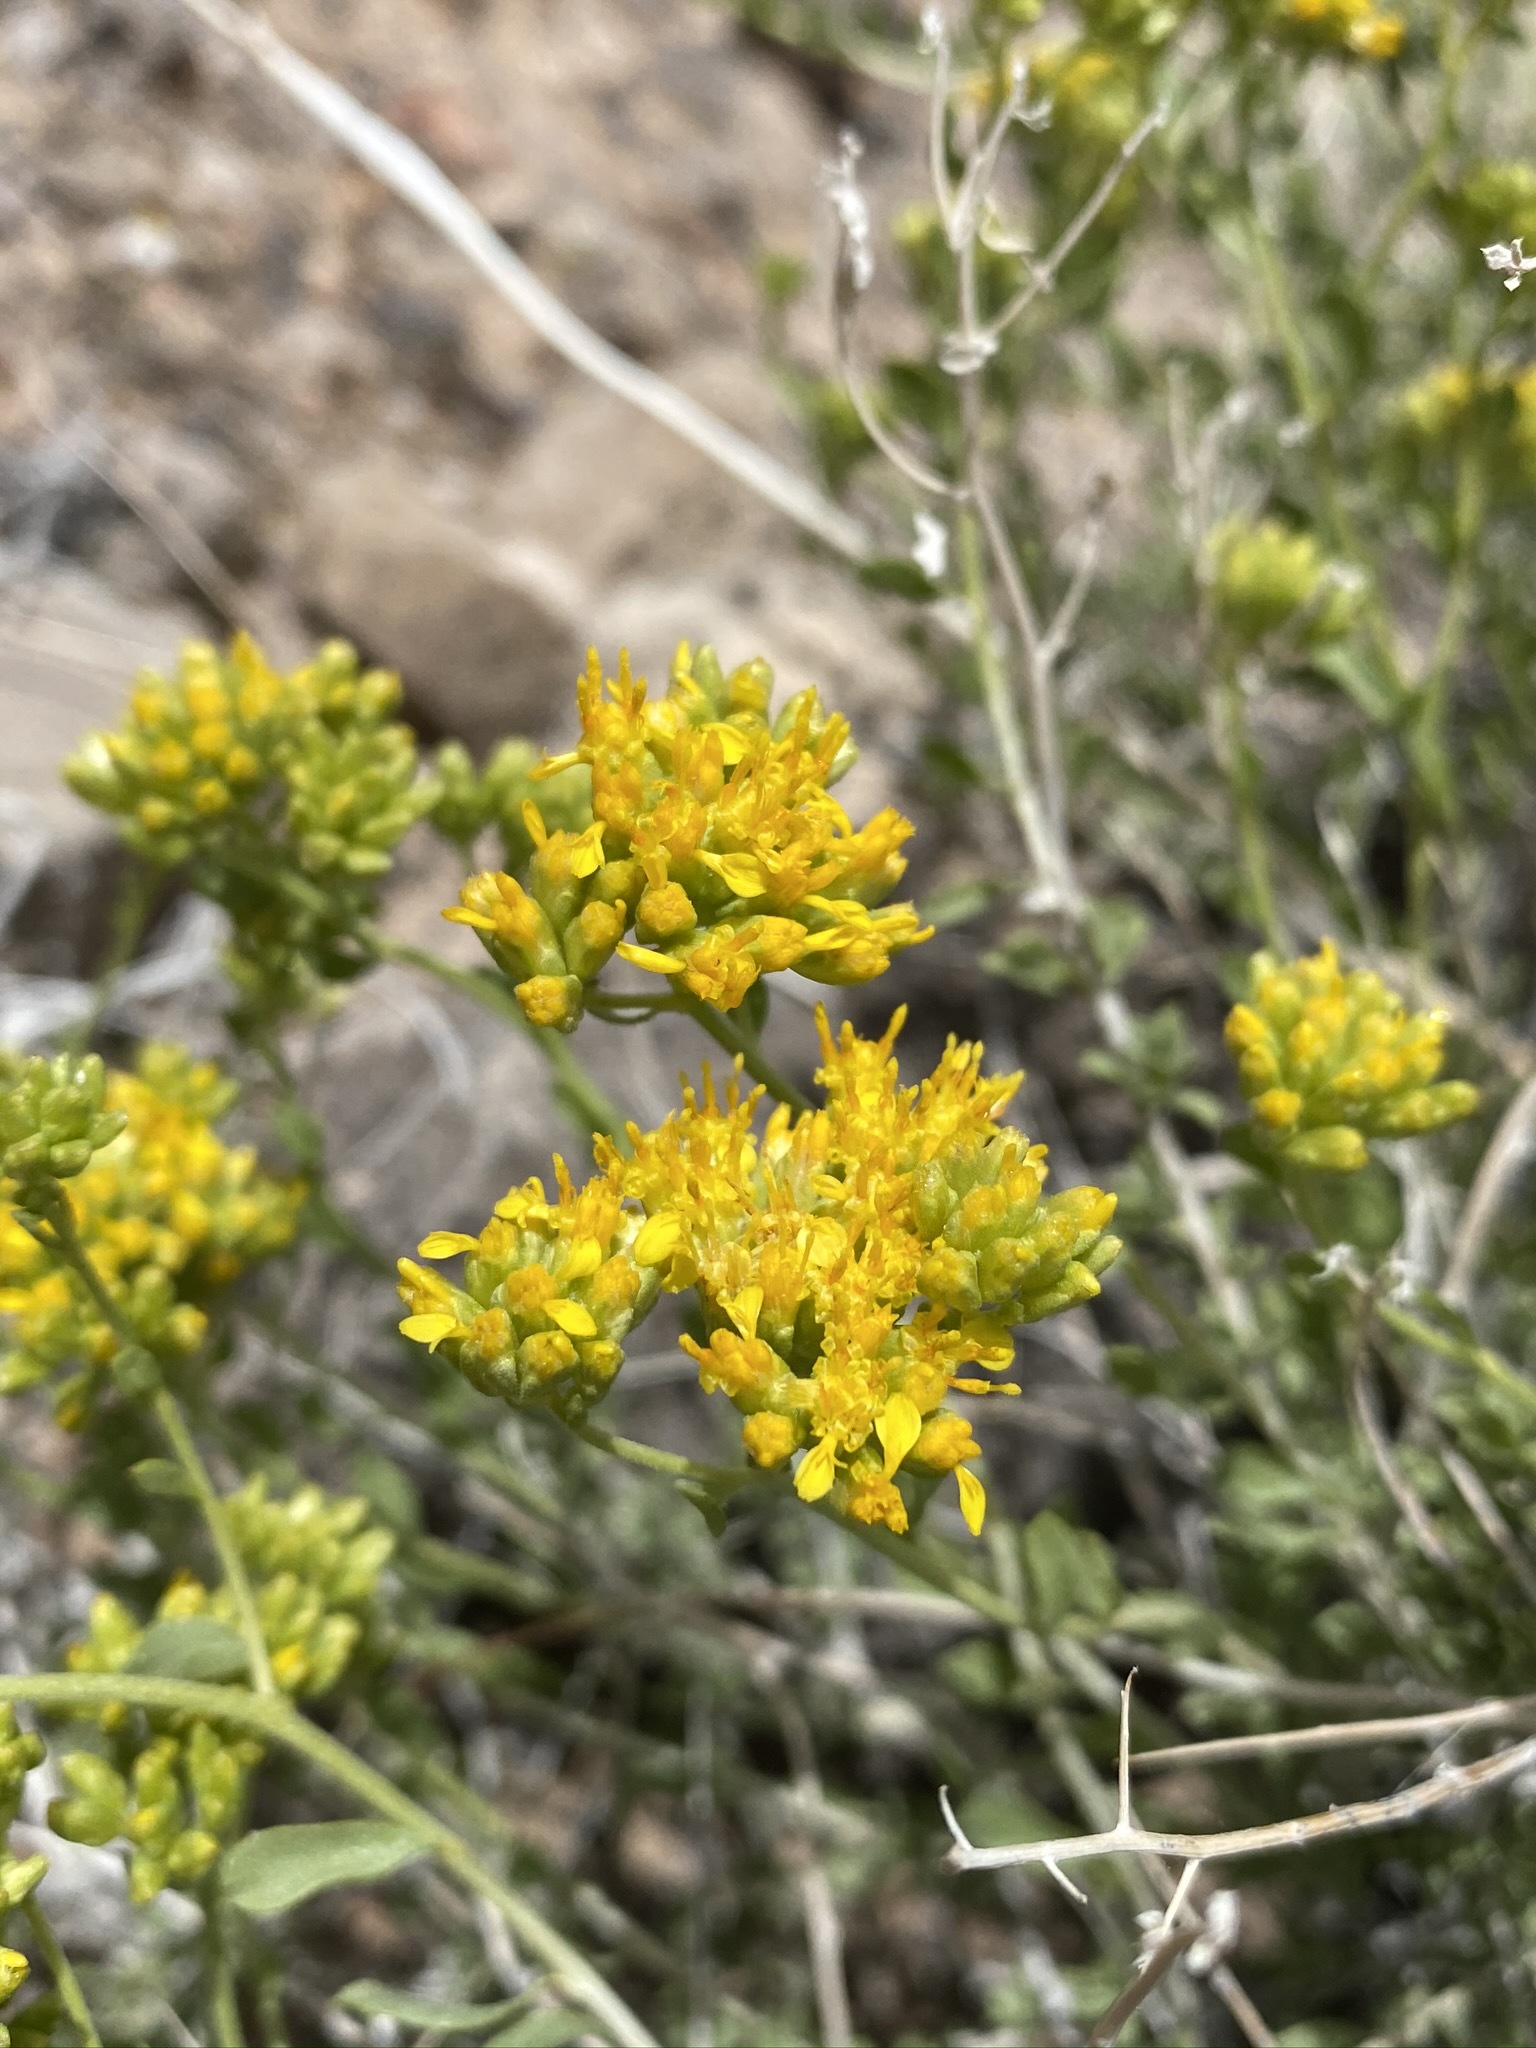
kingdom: Plantae
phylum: Tracheophyta
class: Magnoliopsida
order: Asterales
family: Asteraceae
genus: Amphipappus
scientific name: Amphipappus fremontii
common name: Fremont's chaffbush
